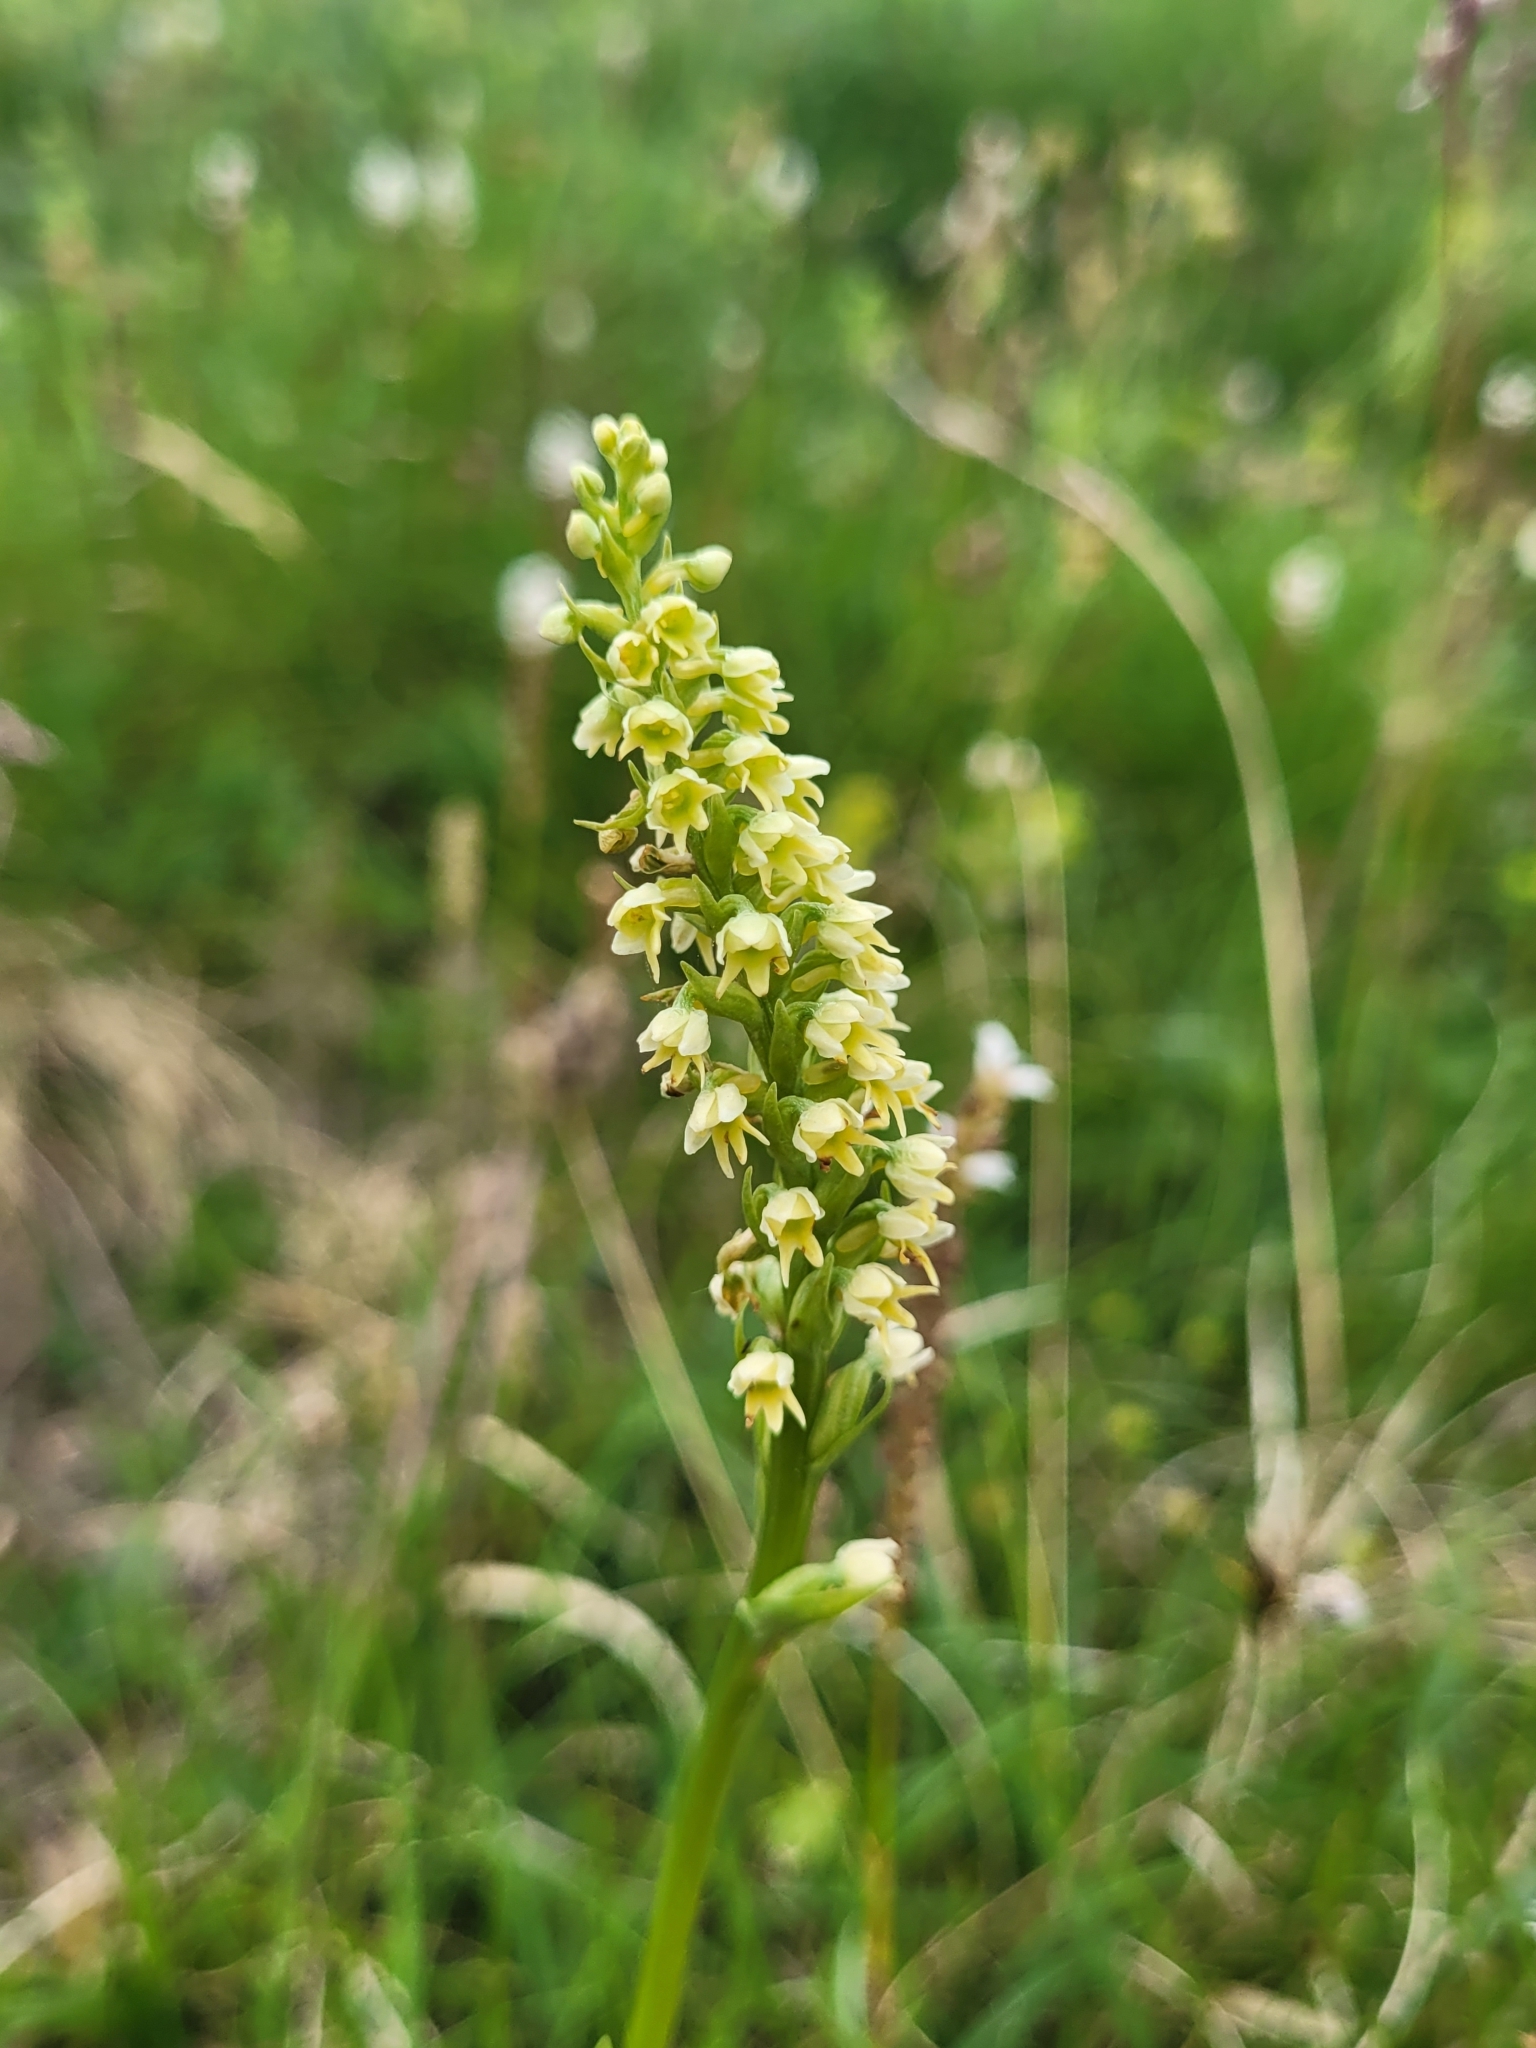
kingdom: Plantae
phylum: Tracheophyta
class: Liliopsida
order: Asparagales
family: Orchidaceae
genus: Pseudorchis
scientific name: Pseudorchis albida
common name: Small-white orchid
